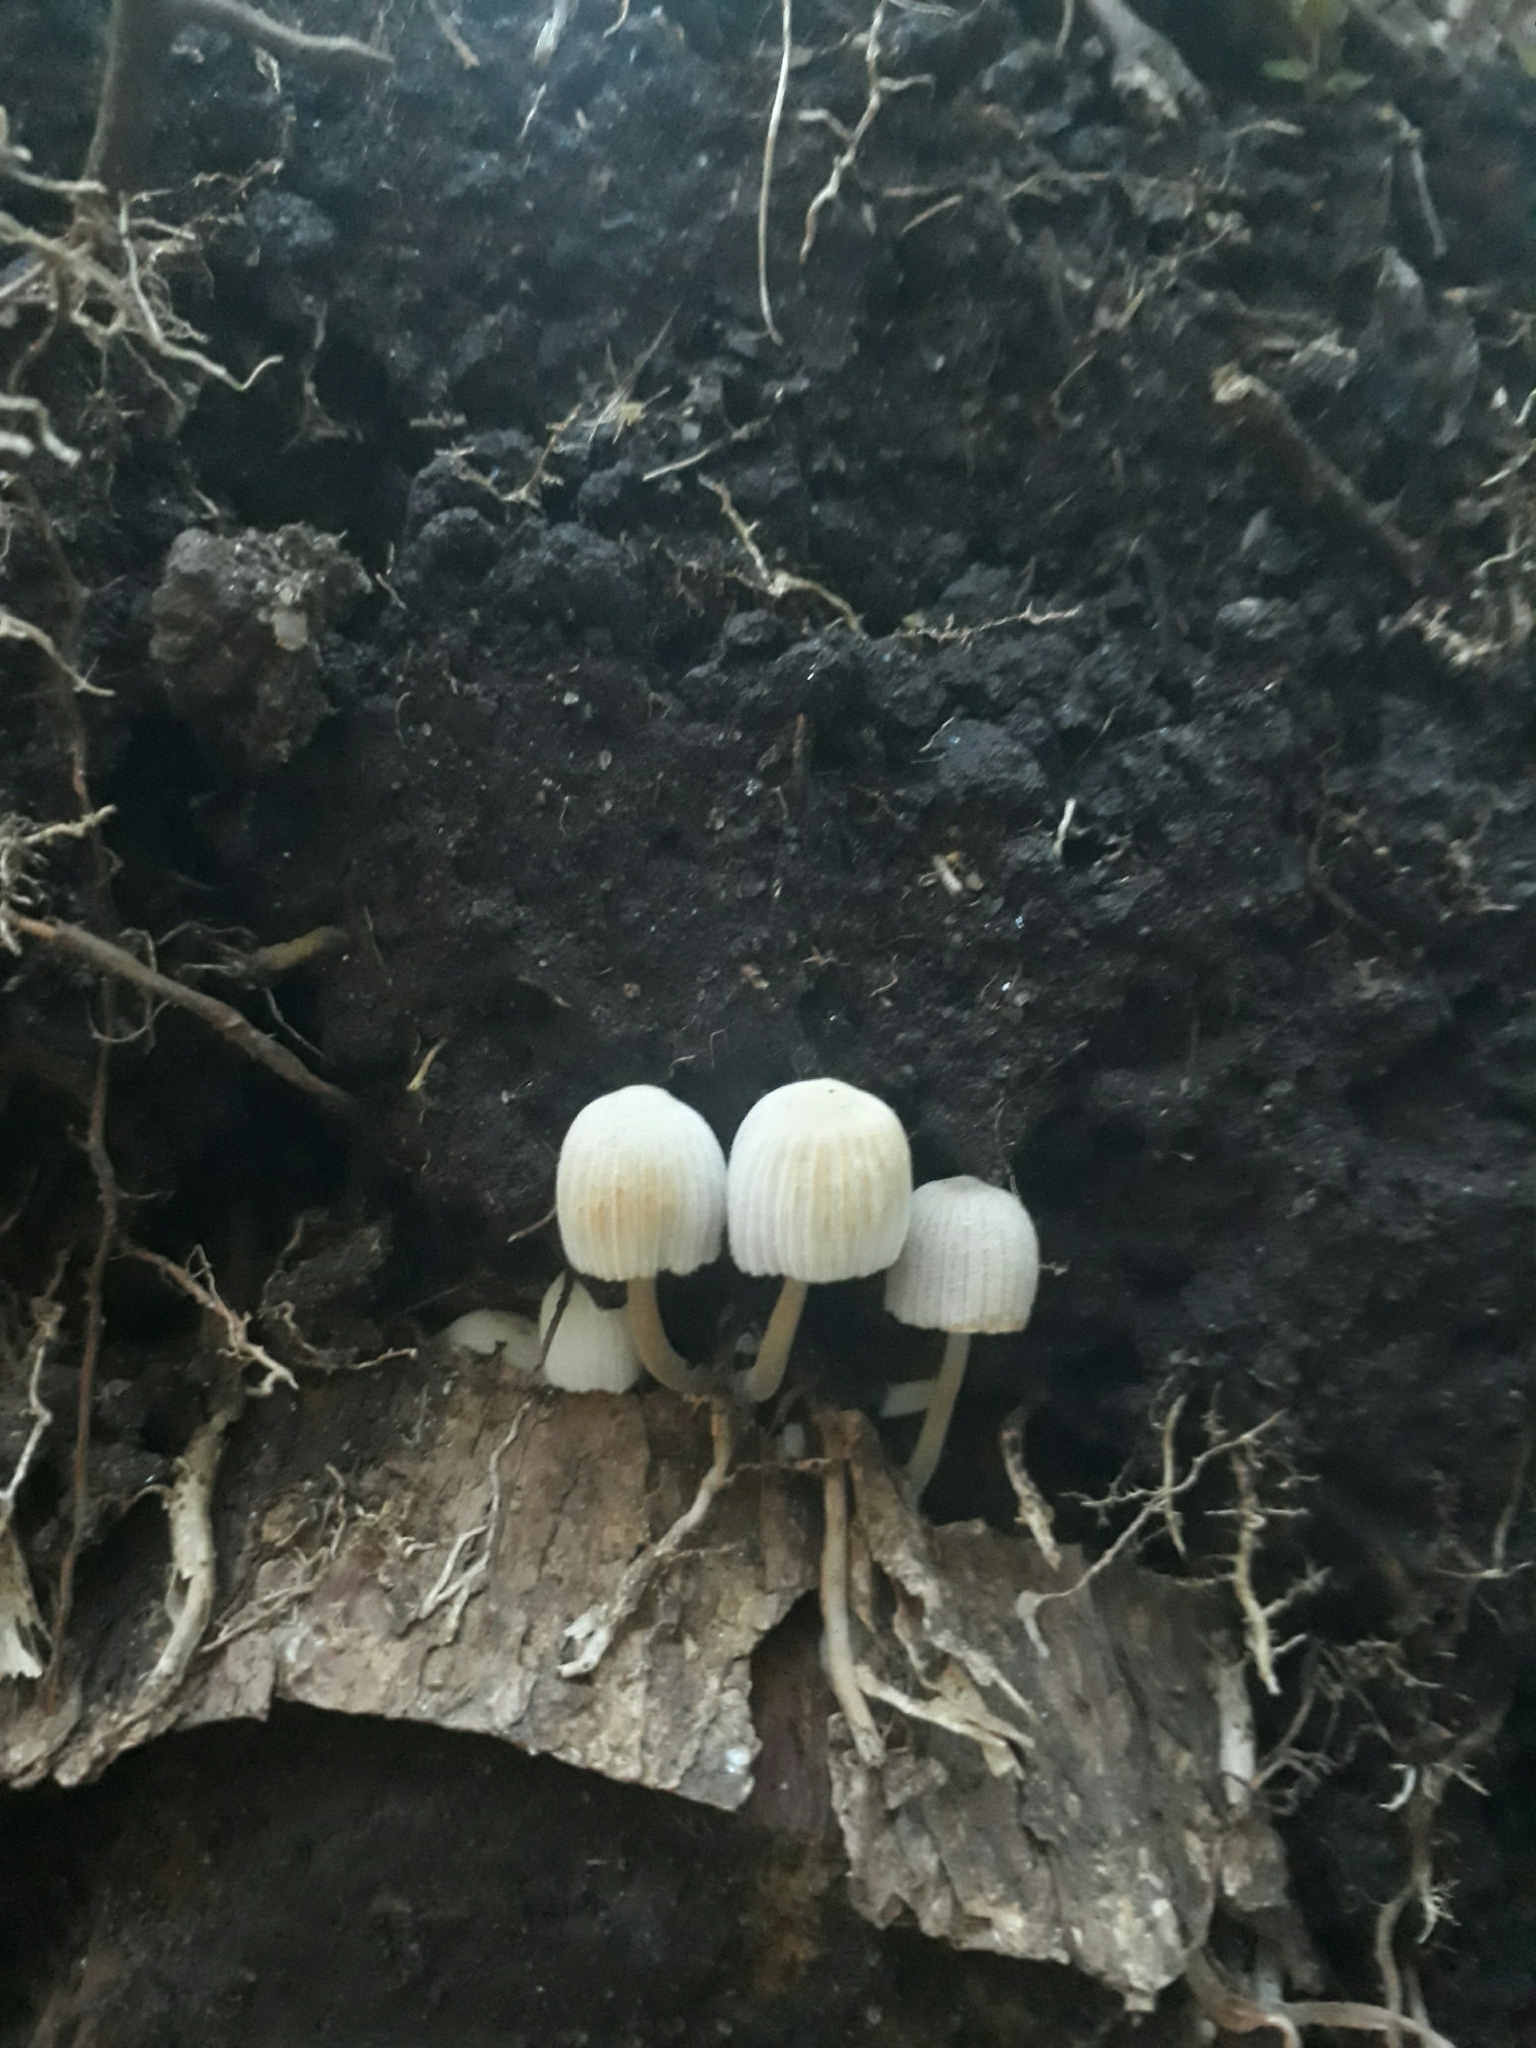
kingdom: Fungi
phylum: Basidiomycota
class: Agaricomycetes
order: Agaricales
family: Psathyrellaceae
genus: Coprinellus
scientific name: Coprinellus disseminatus
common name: Fairies' bonnets
